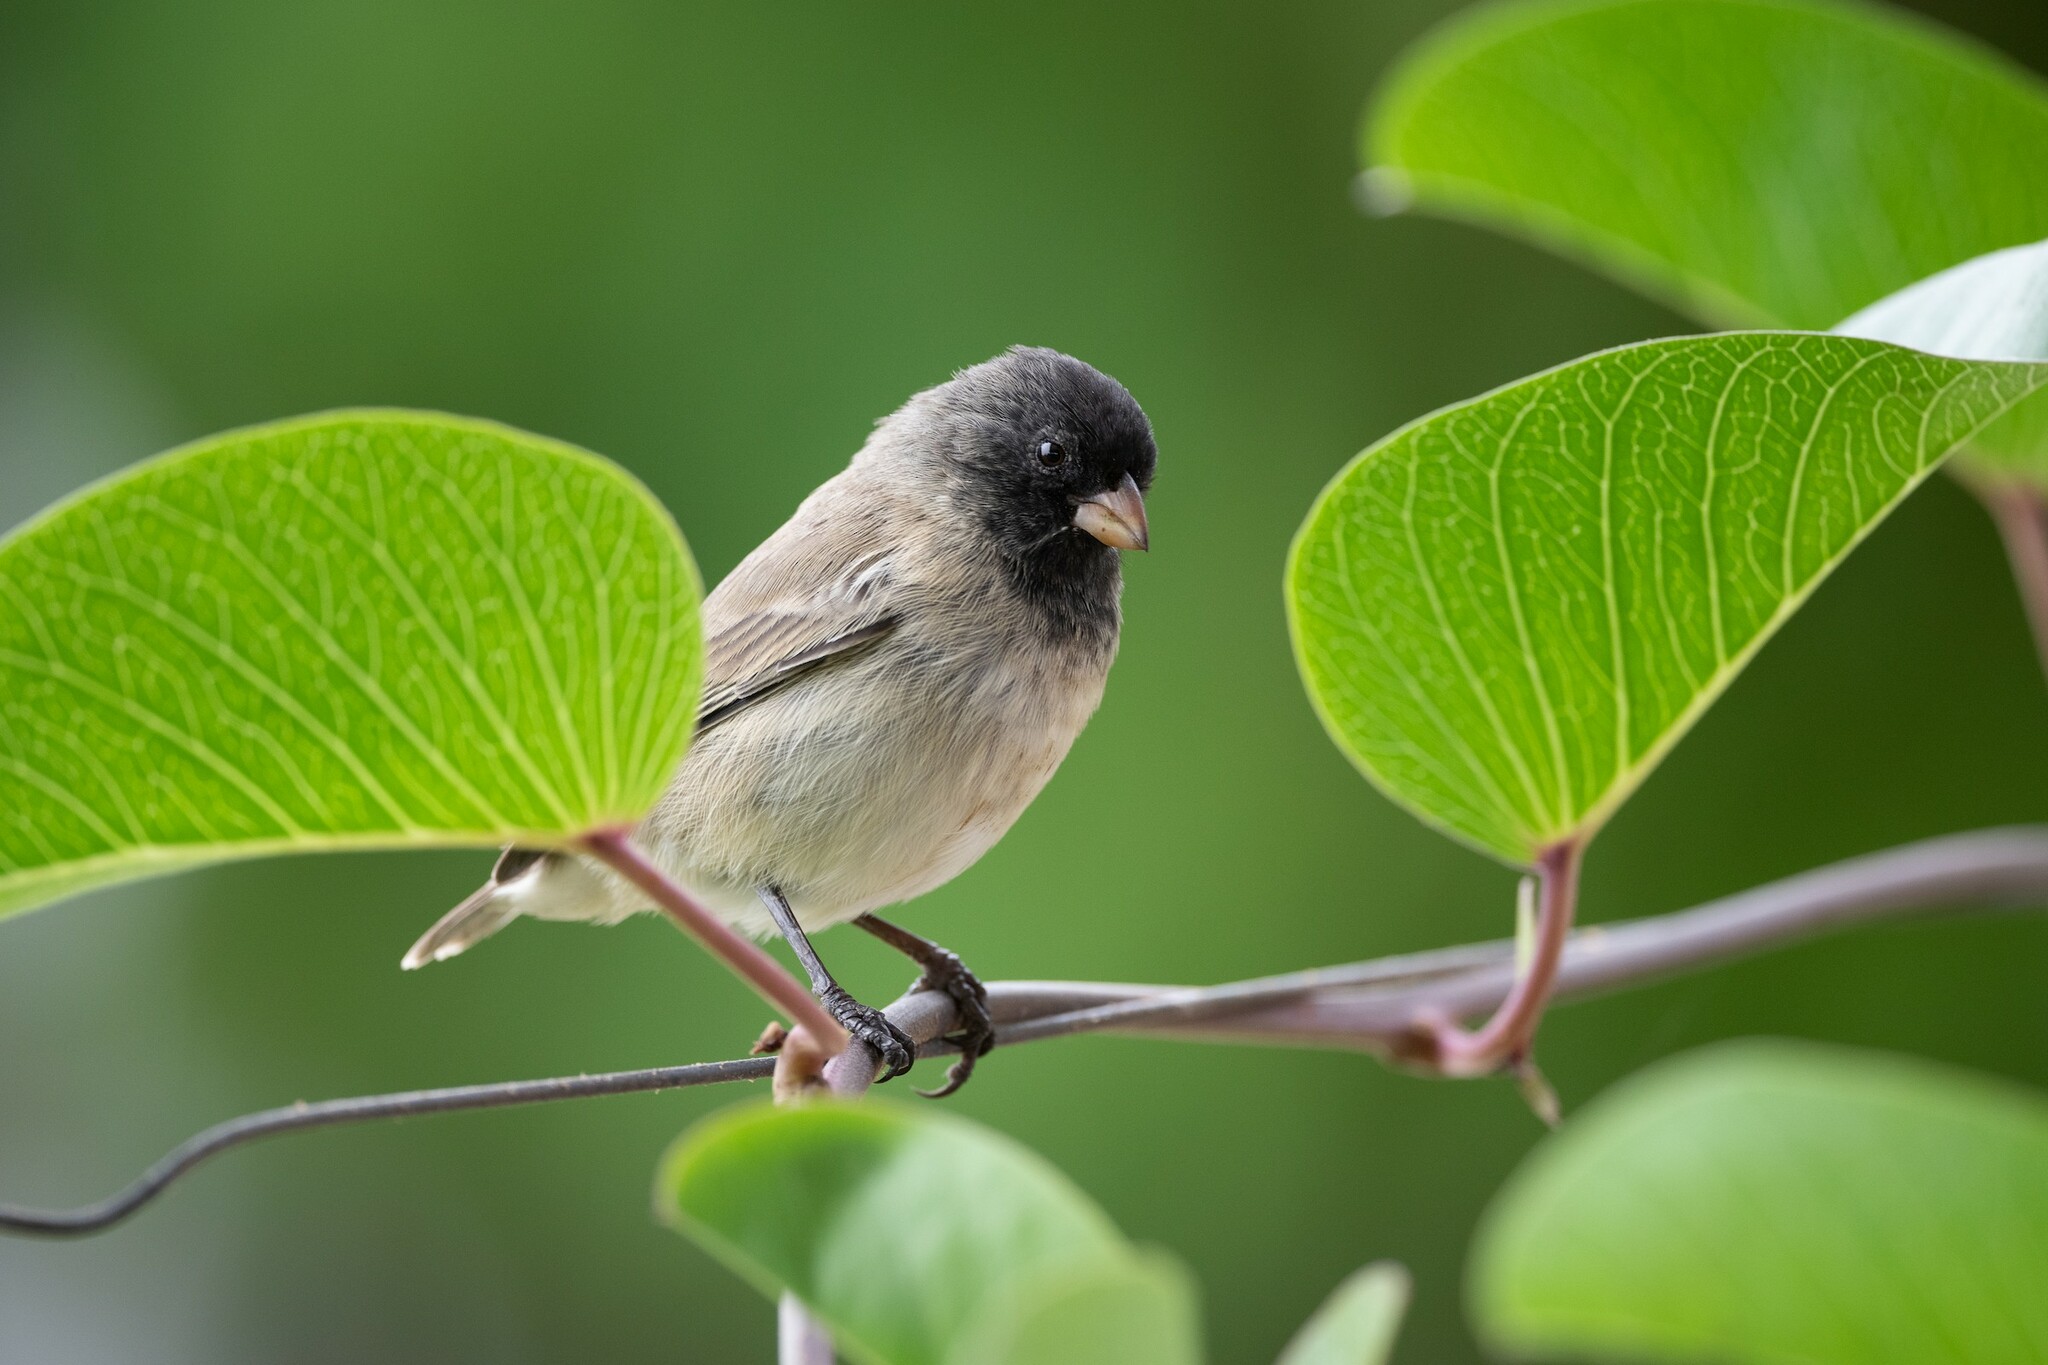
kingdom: Animalia
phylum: Chordata
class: Aves
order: Passeriformes
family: Thraupidae
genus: Camarhynchus
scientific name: Camarhynchus parvulus
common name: Small tree finch
